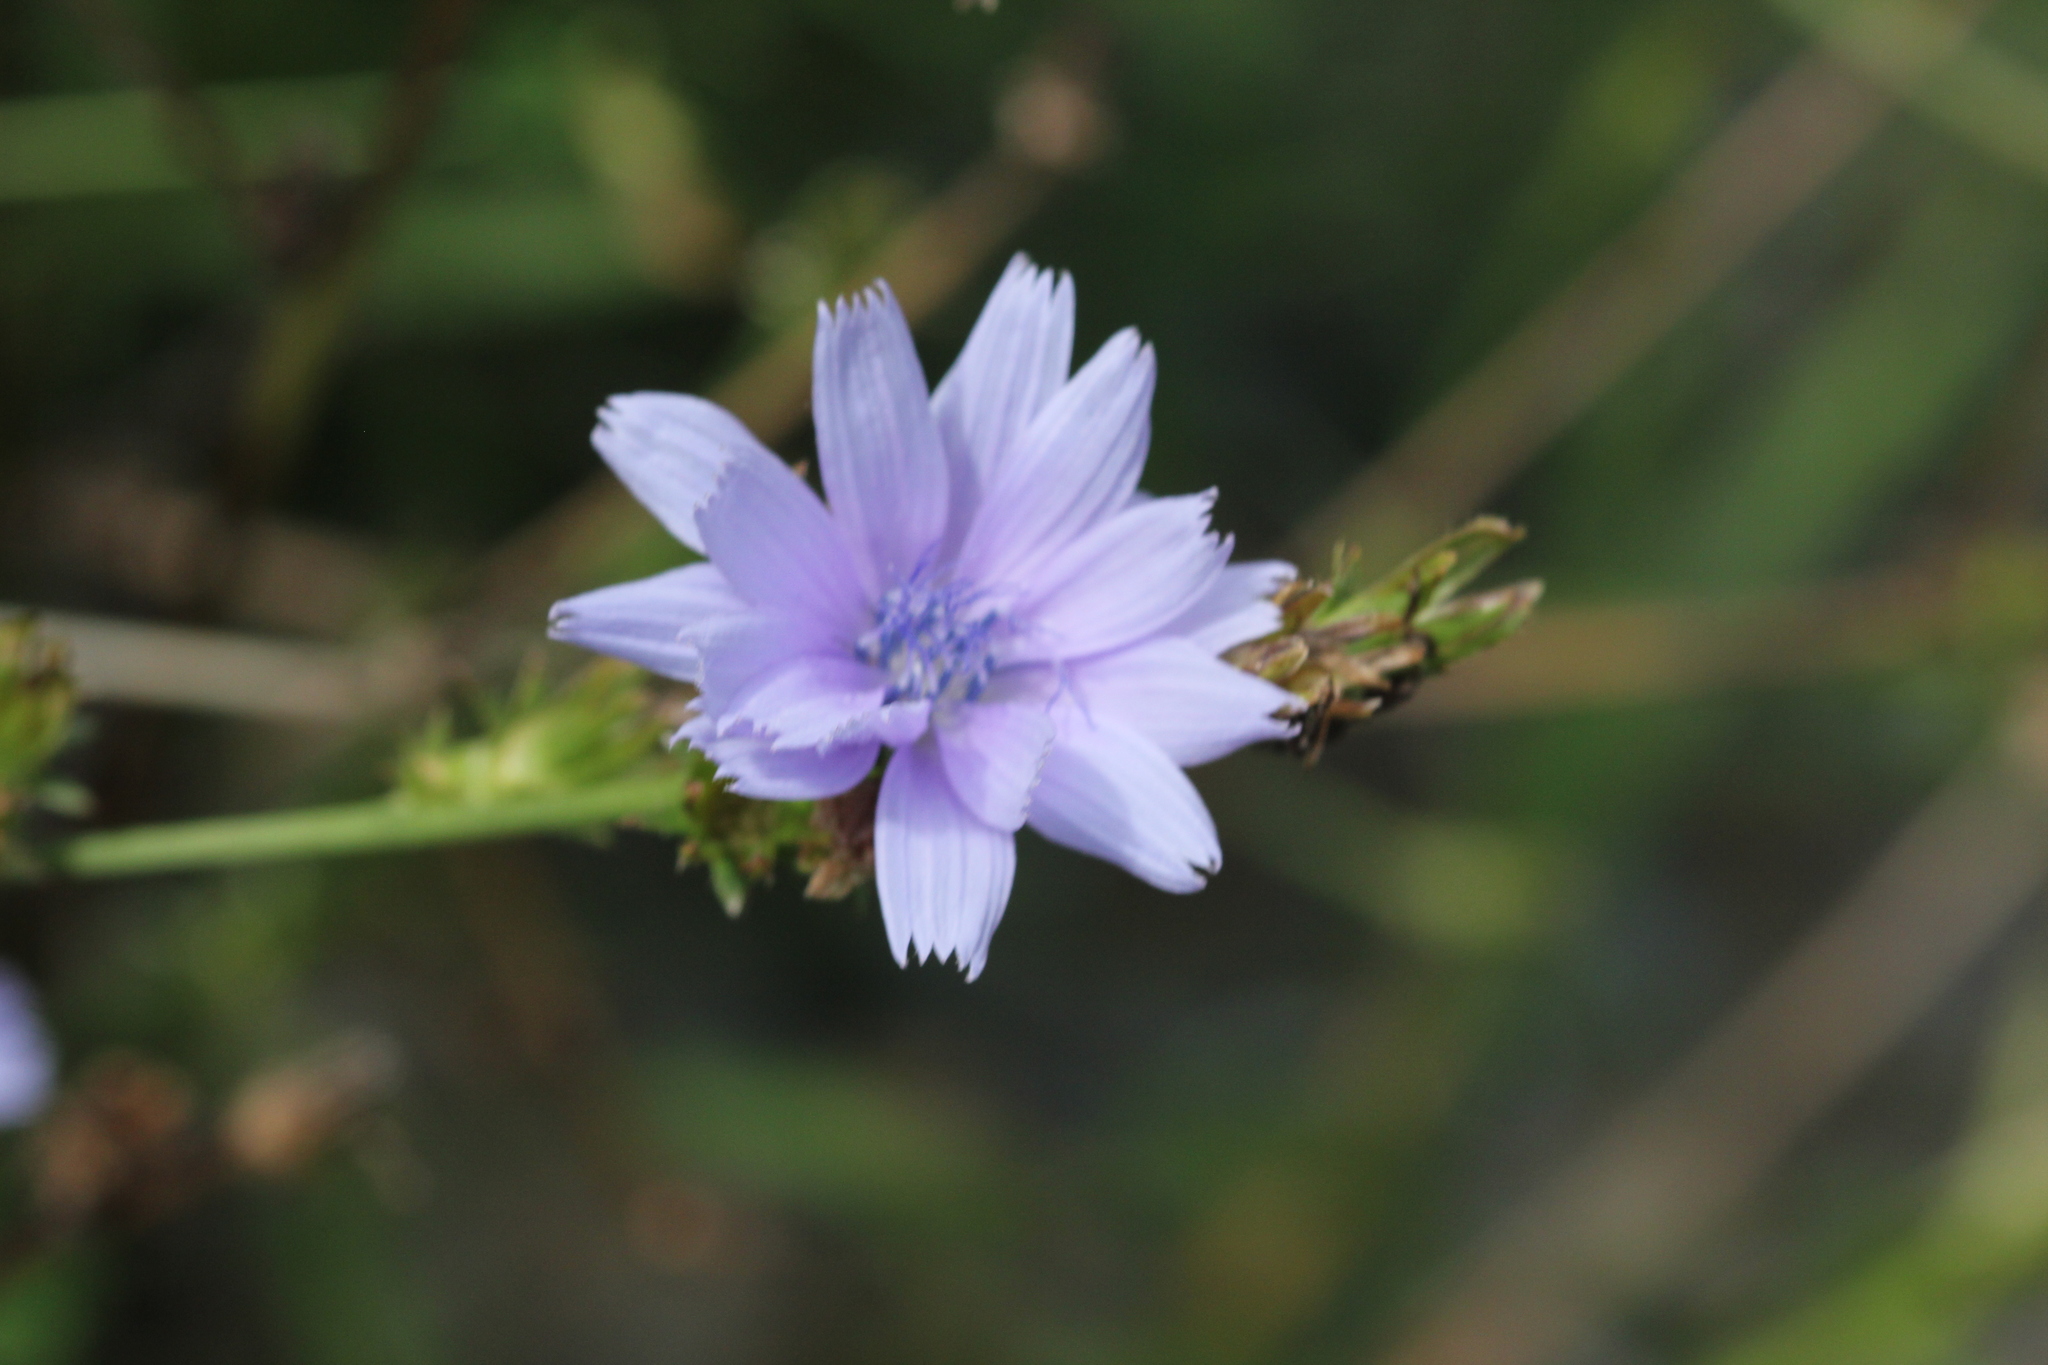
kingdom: Plantae
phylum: Tracheophyta
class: Magnoliopsida
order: Asterales
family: Asteraceae
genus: Cichorium
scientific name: Cichorium intybus
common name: Chicory
